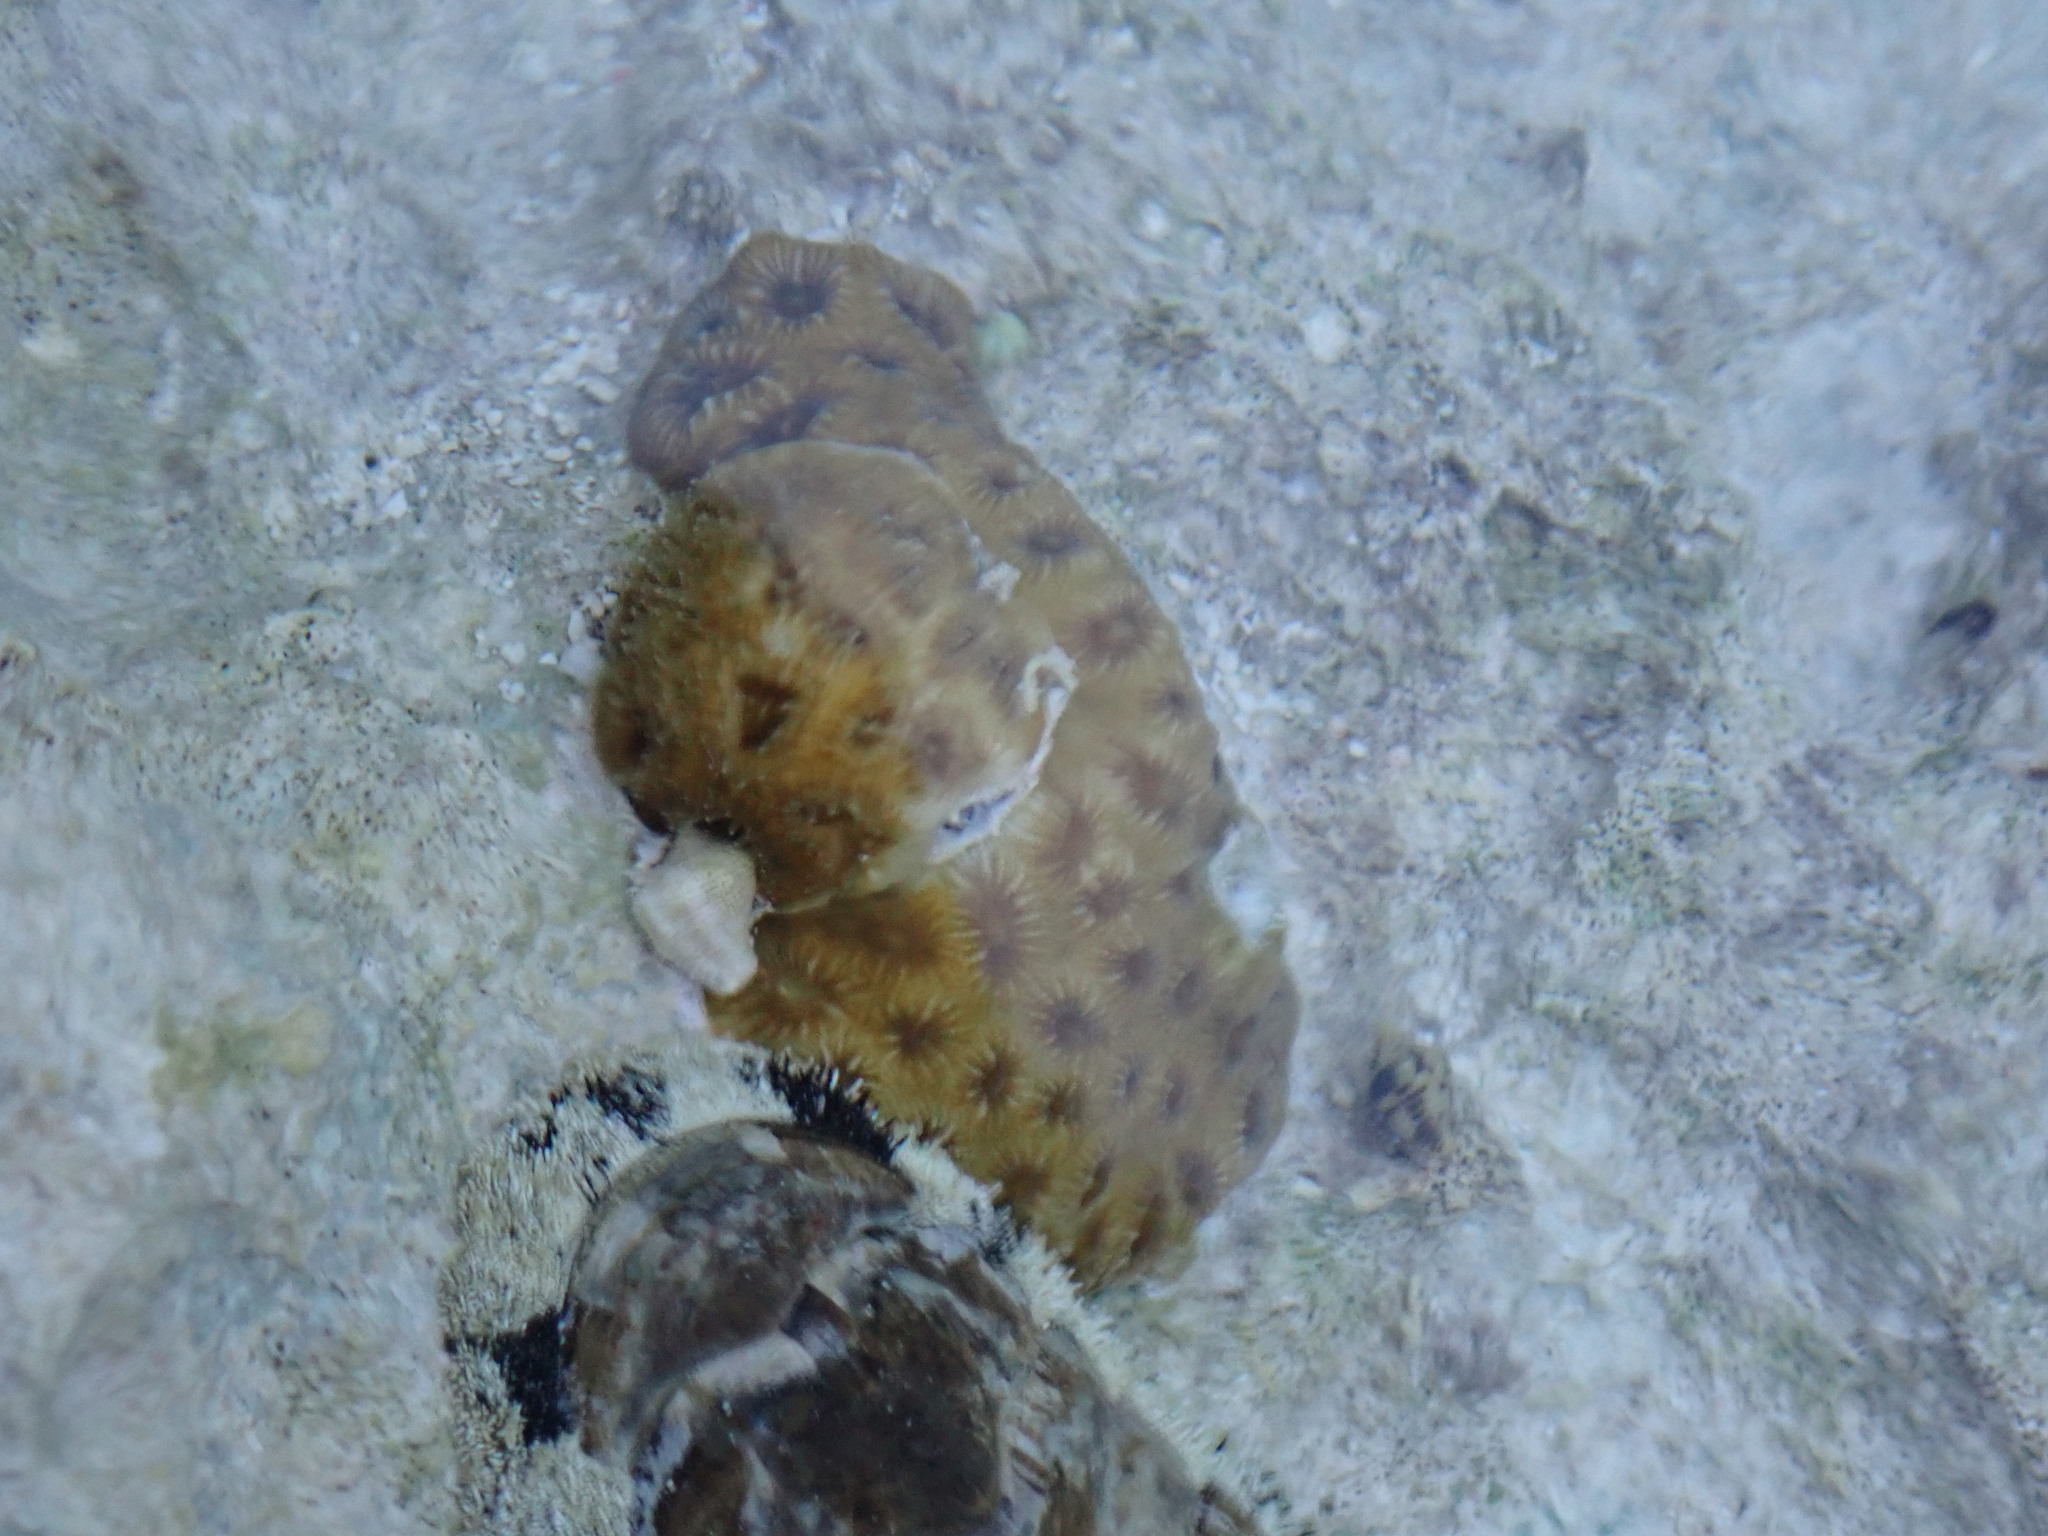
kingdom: Animalia
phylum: Cnidaria
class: Anthozoa
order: Scleractinia
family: Faviidae
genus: Favia
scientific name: Favia fragum
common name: Golfball coral
